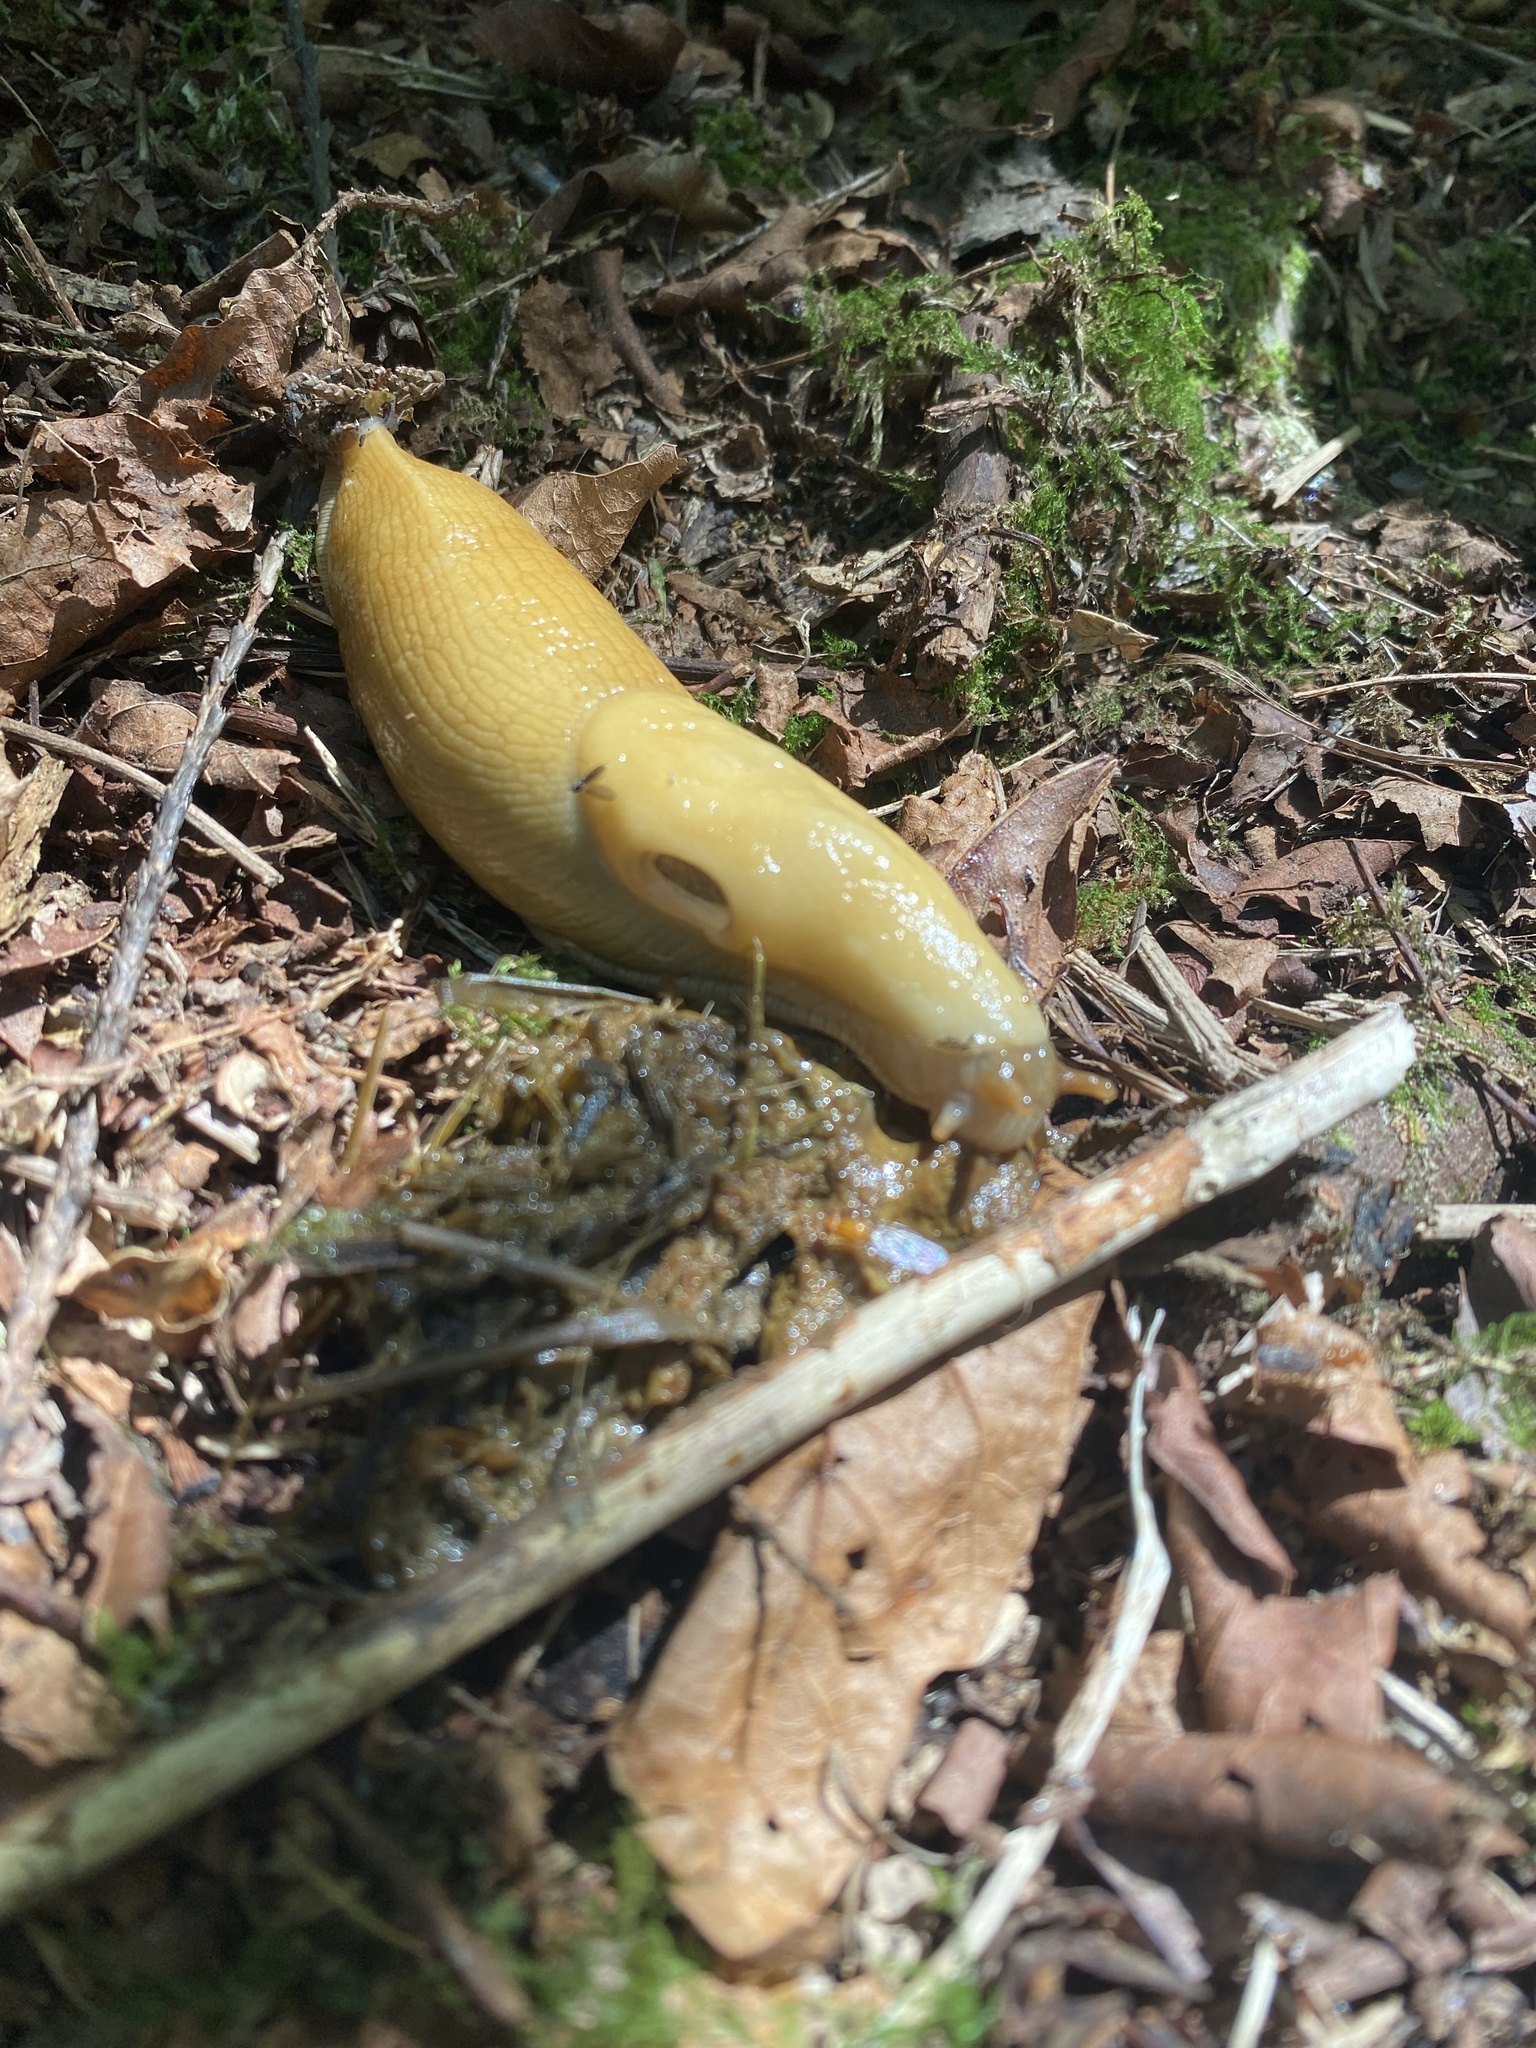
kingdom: Animalia
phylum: Mollusca
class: Gastropoda
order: Stylommatophora
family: Ariolimacidae
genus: Ariolimax
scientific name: Ariolimax columbianus
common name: Pacific banana slug
